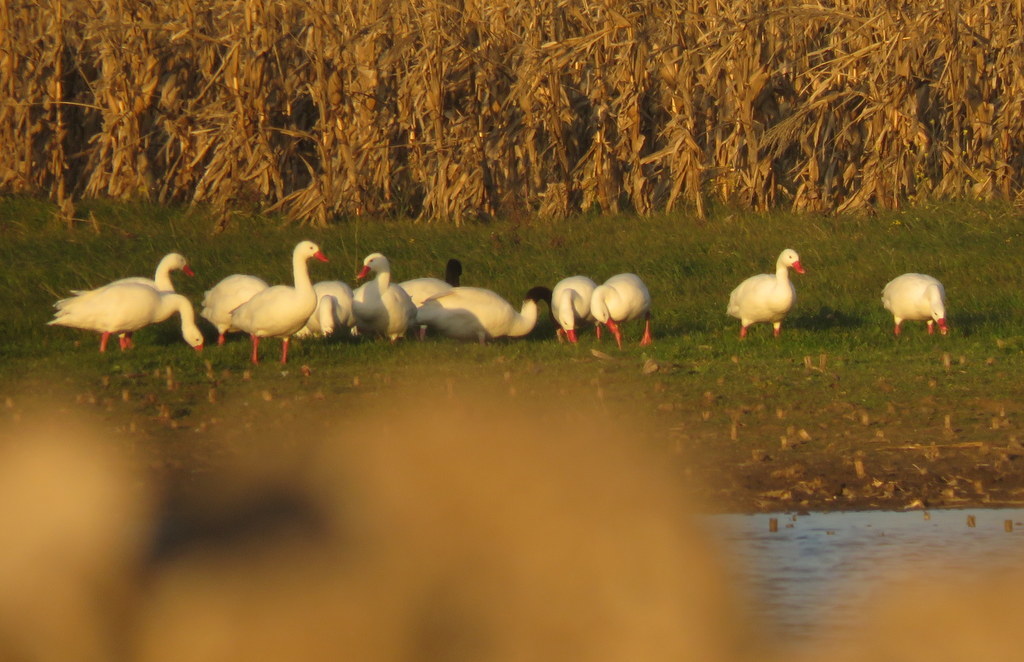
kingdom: Animalia
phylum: Chordata
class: Aves
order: Anseriformes
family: Anatidae
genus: Coscoroba
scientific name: Coscoroba coscoroba
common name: Coscoroba swan
